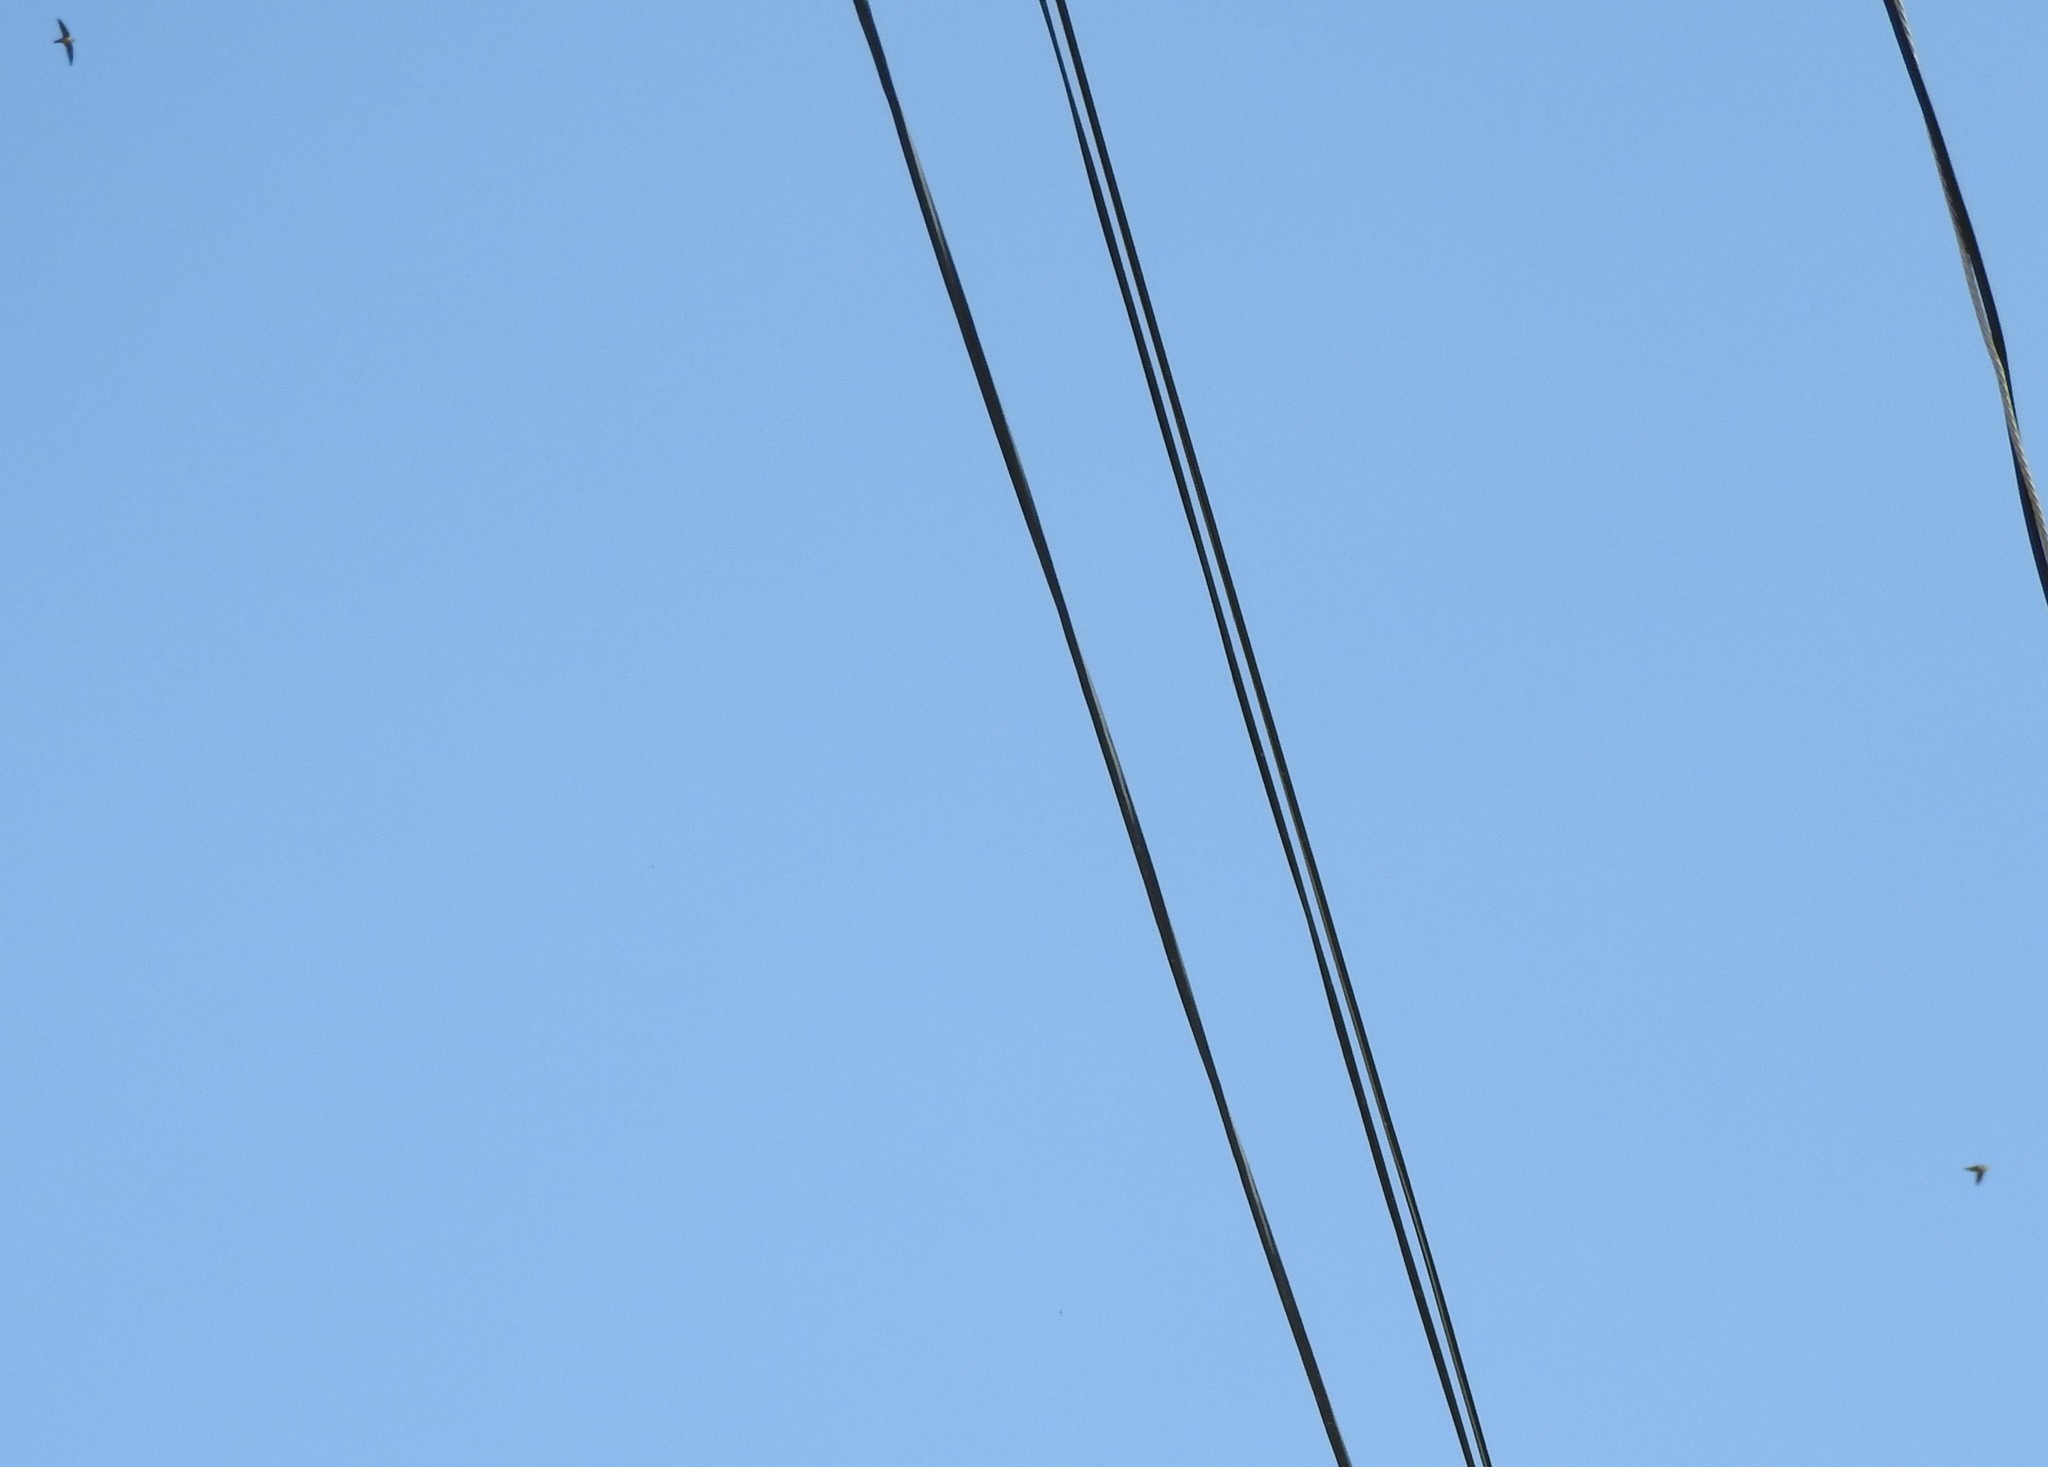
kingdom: Animalia
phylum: Chordata
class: Aves
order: Apodiformes
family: Apodidae
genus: Cypseloides
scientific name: Cypseloides niger
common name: Black swift
